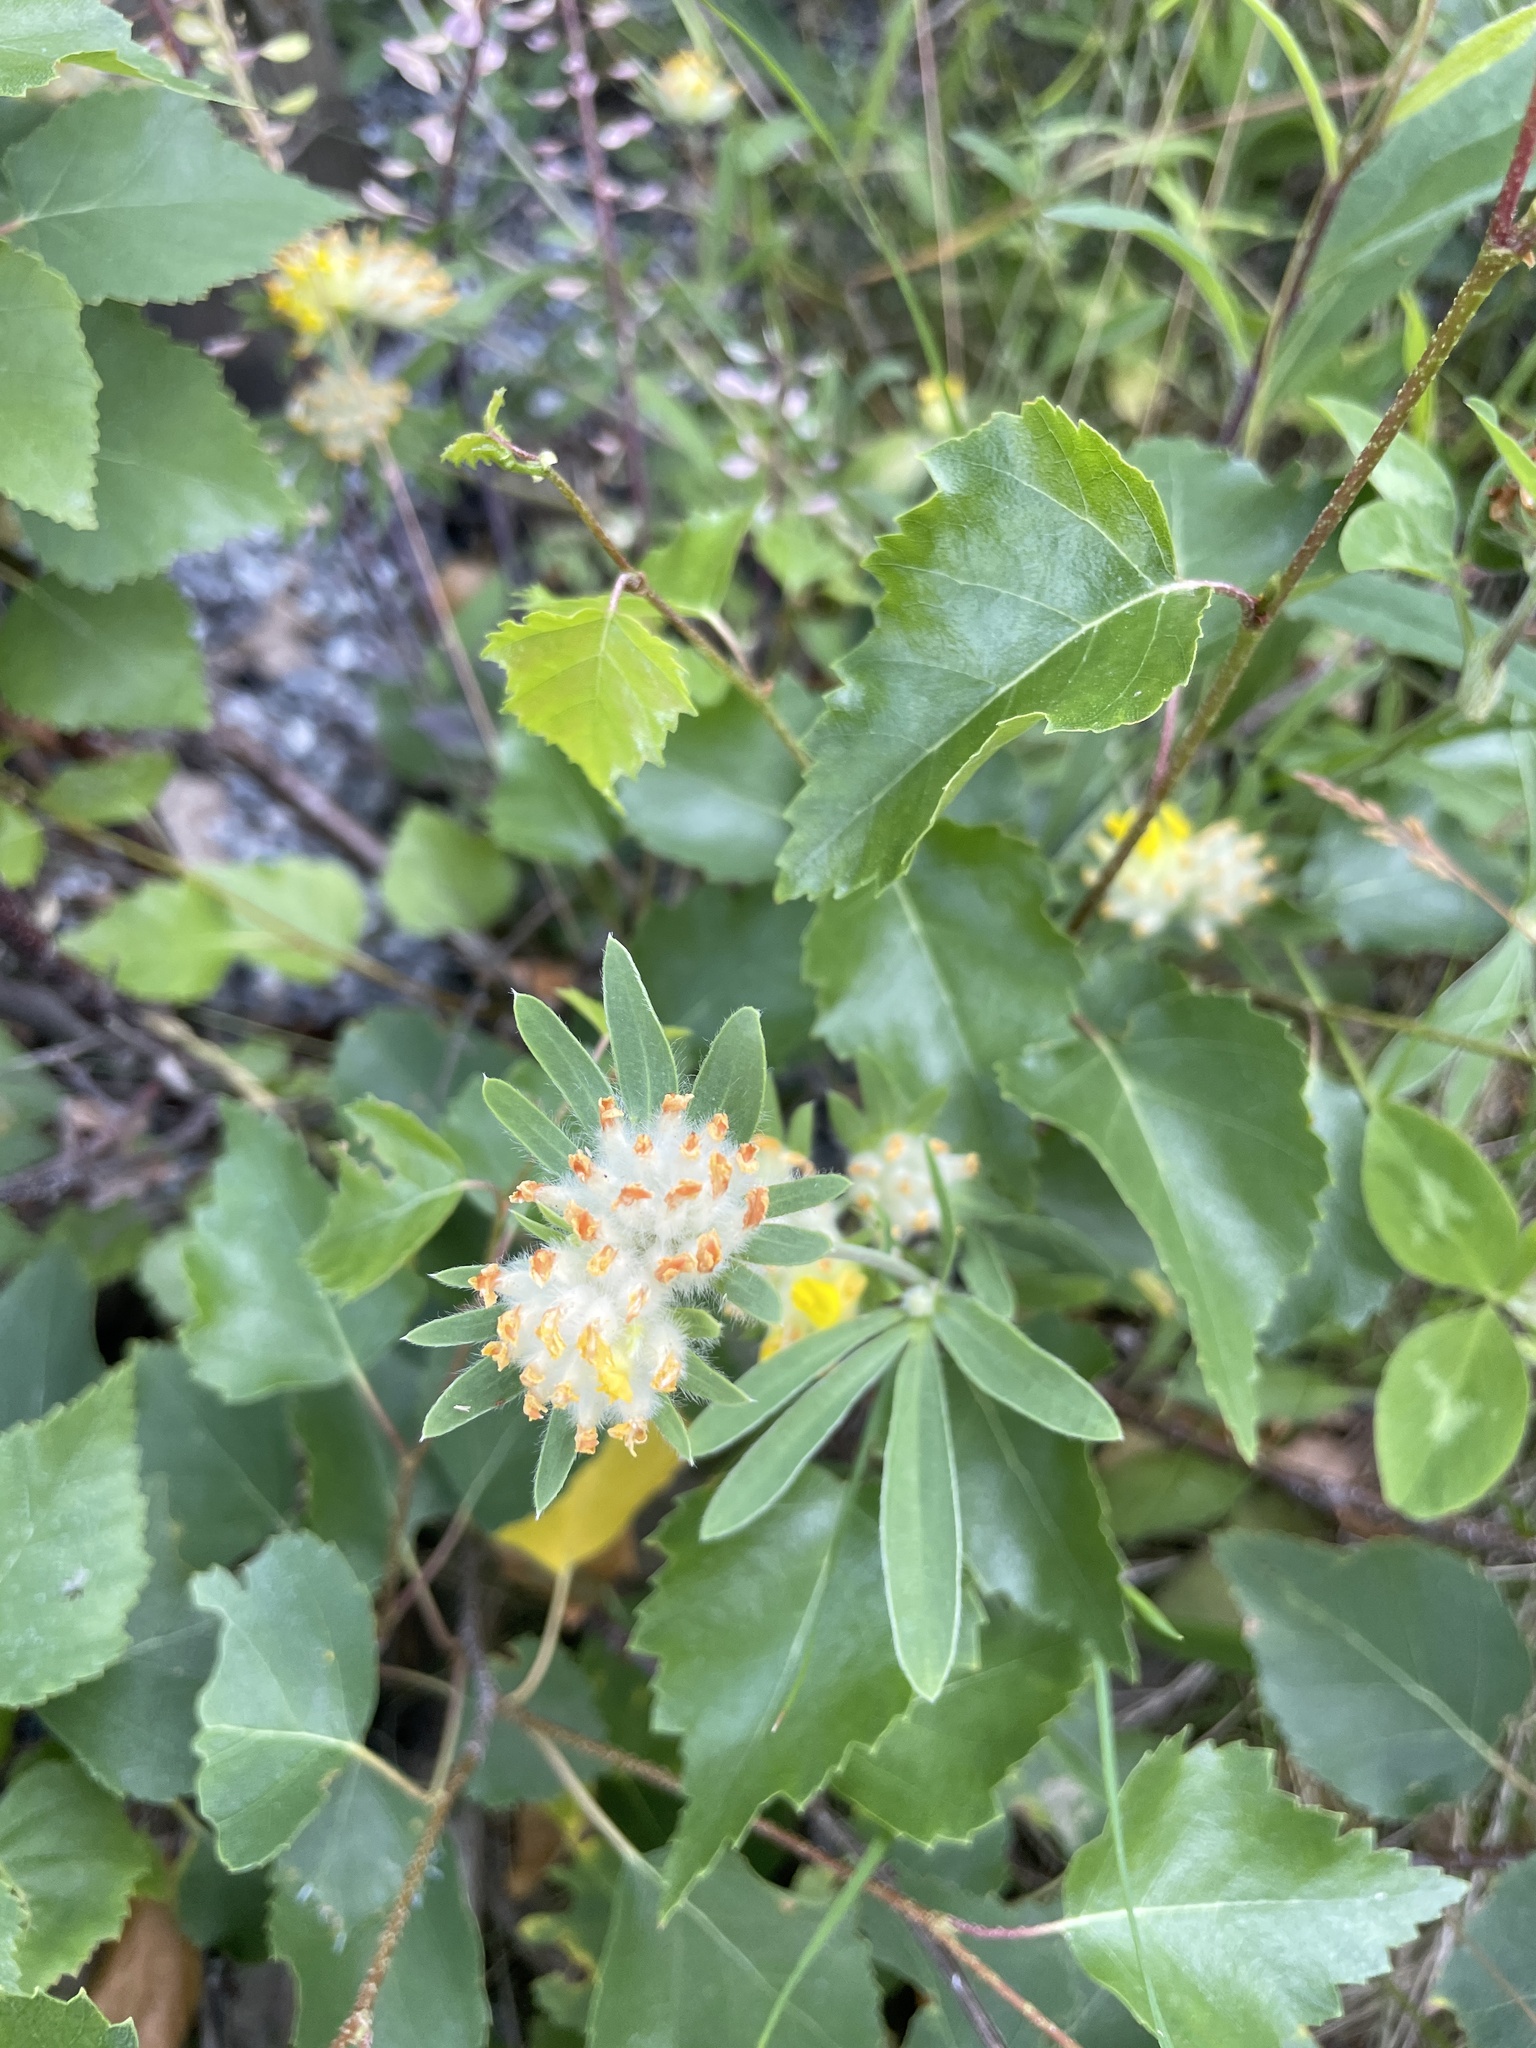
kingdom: Plantae
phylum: Tracheophyta
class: Magnoliopsida
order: Fabales
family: Fabaceae
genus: Anthyllis
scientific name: Anthyllis vulneraria
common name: Kidney vetch
